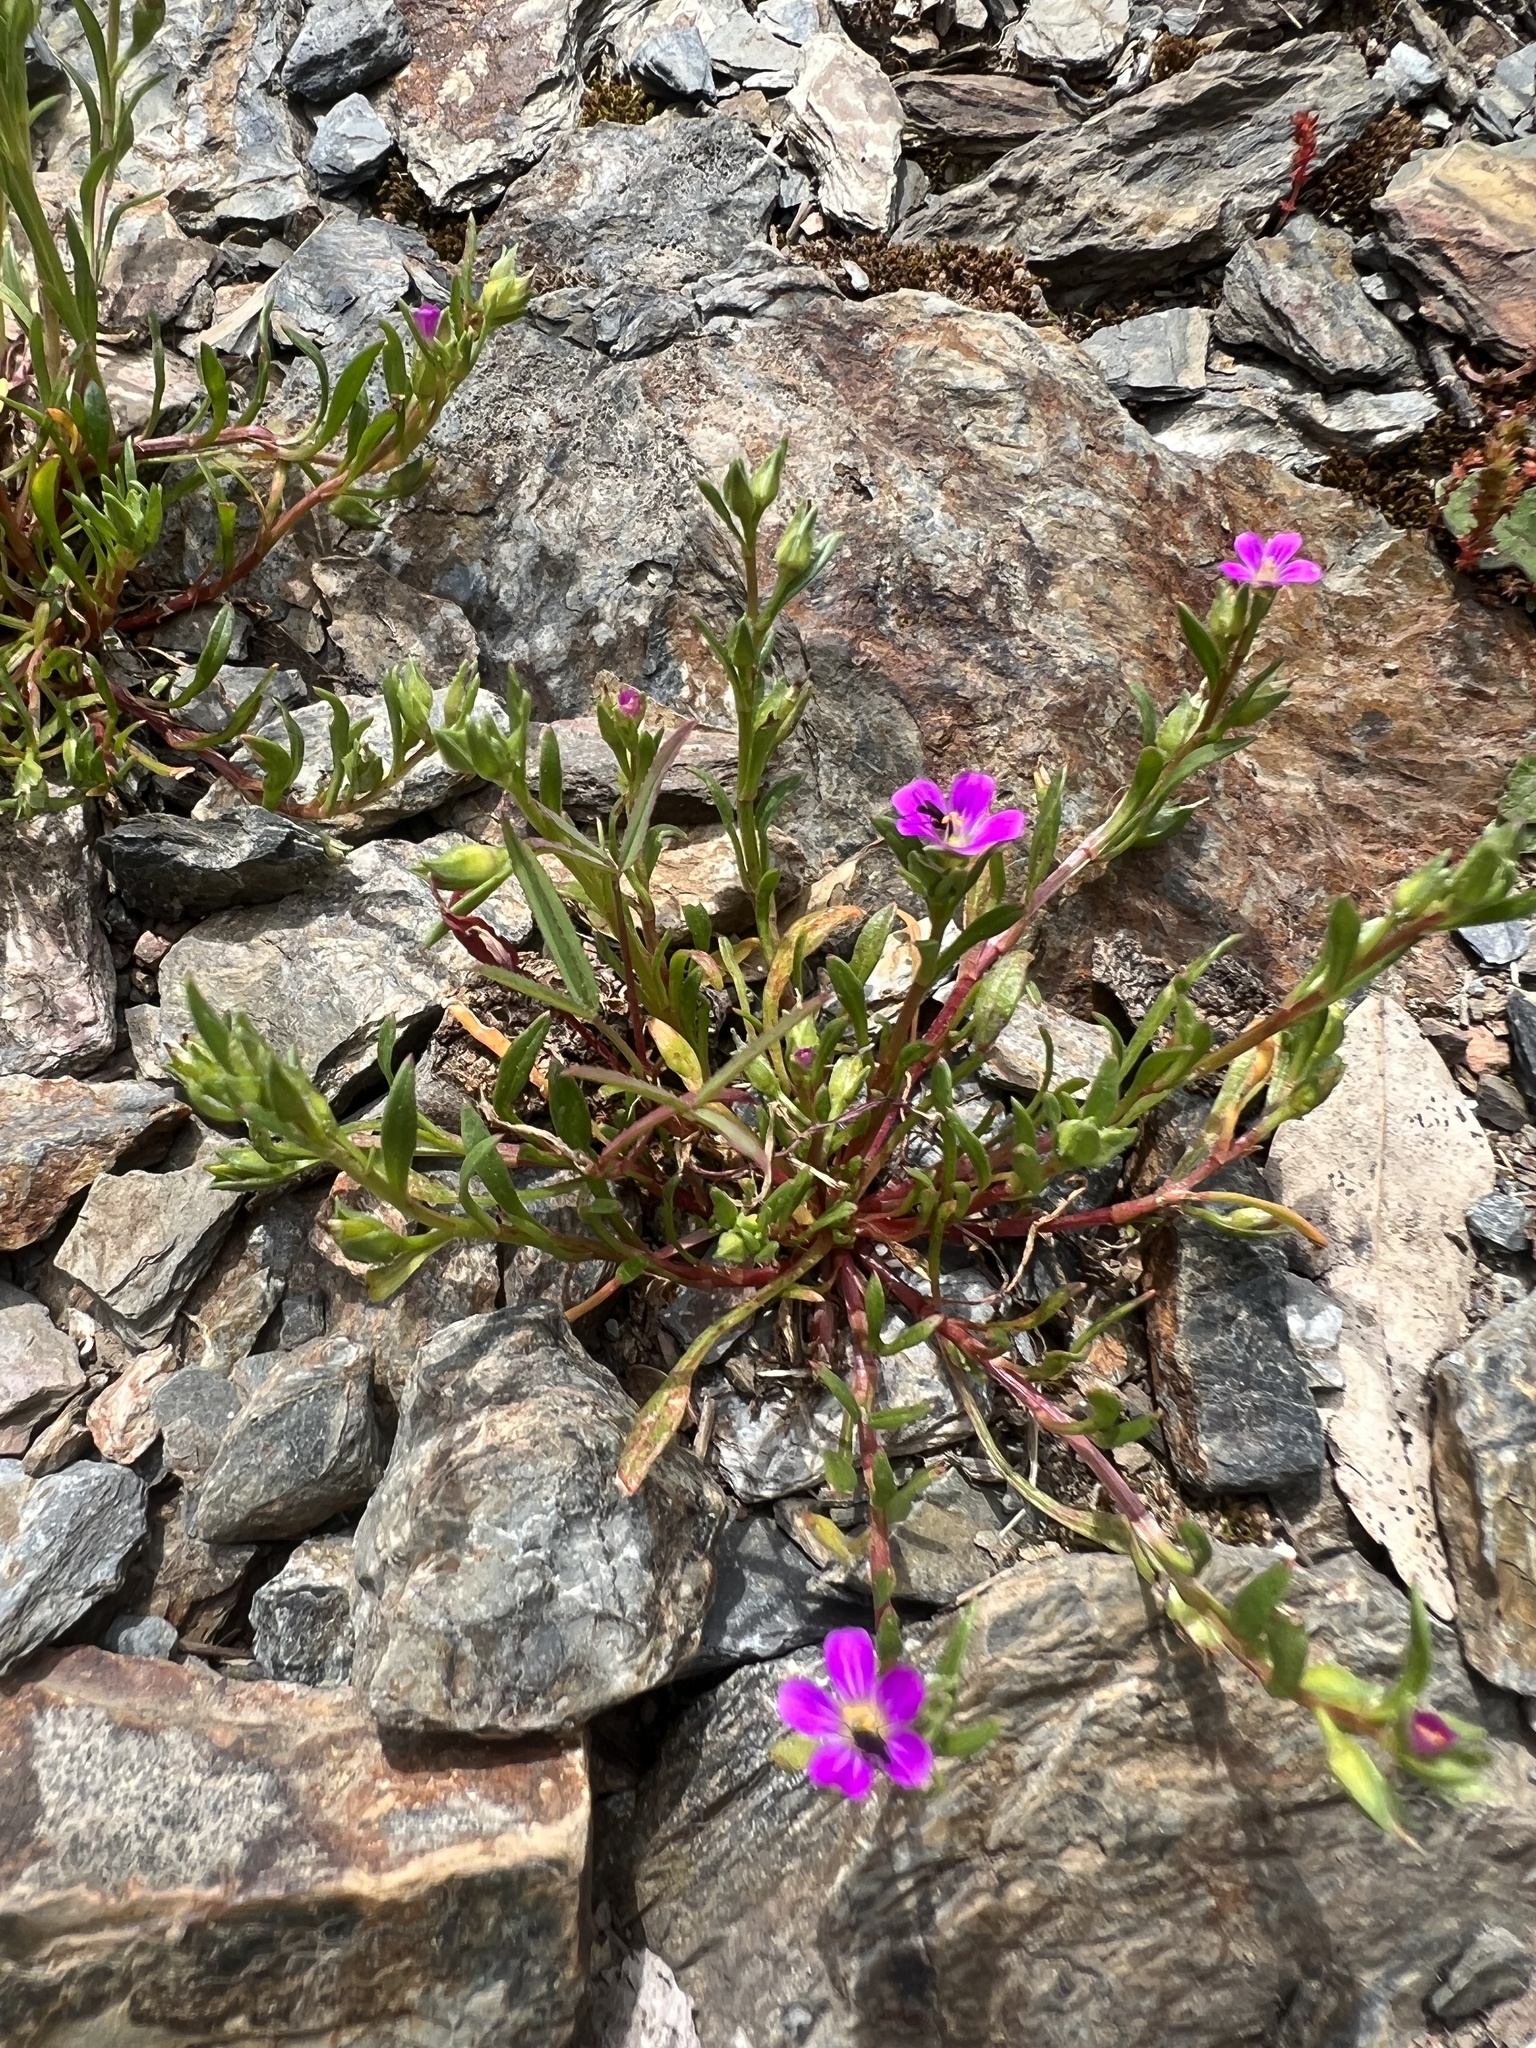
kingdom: Plantae
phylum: Tracheophyta
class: Magnoliopsida
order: Caryophyllales
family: Montiaceae
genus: Calandrinia
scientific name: Calandrinia menziesii
